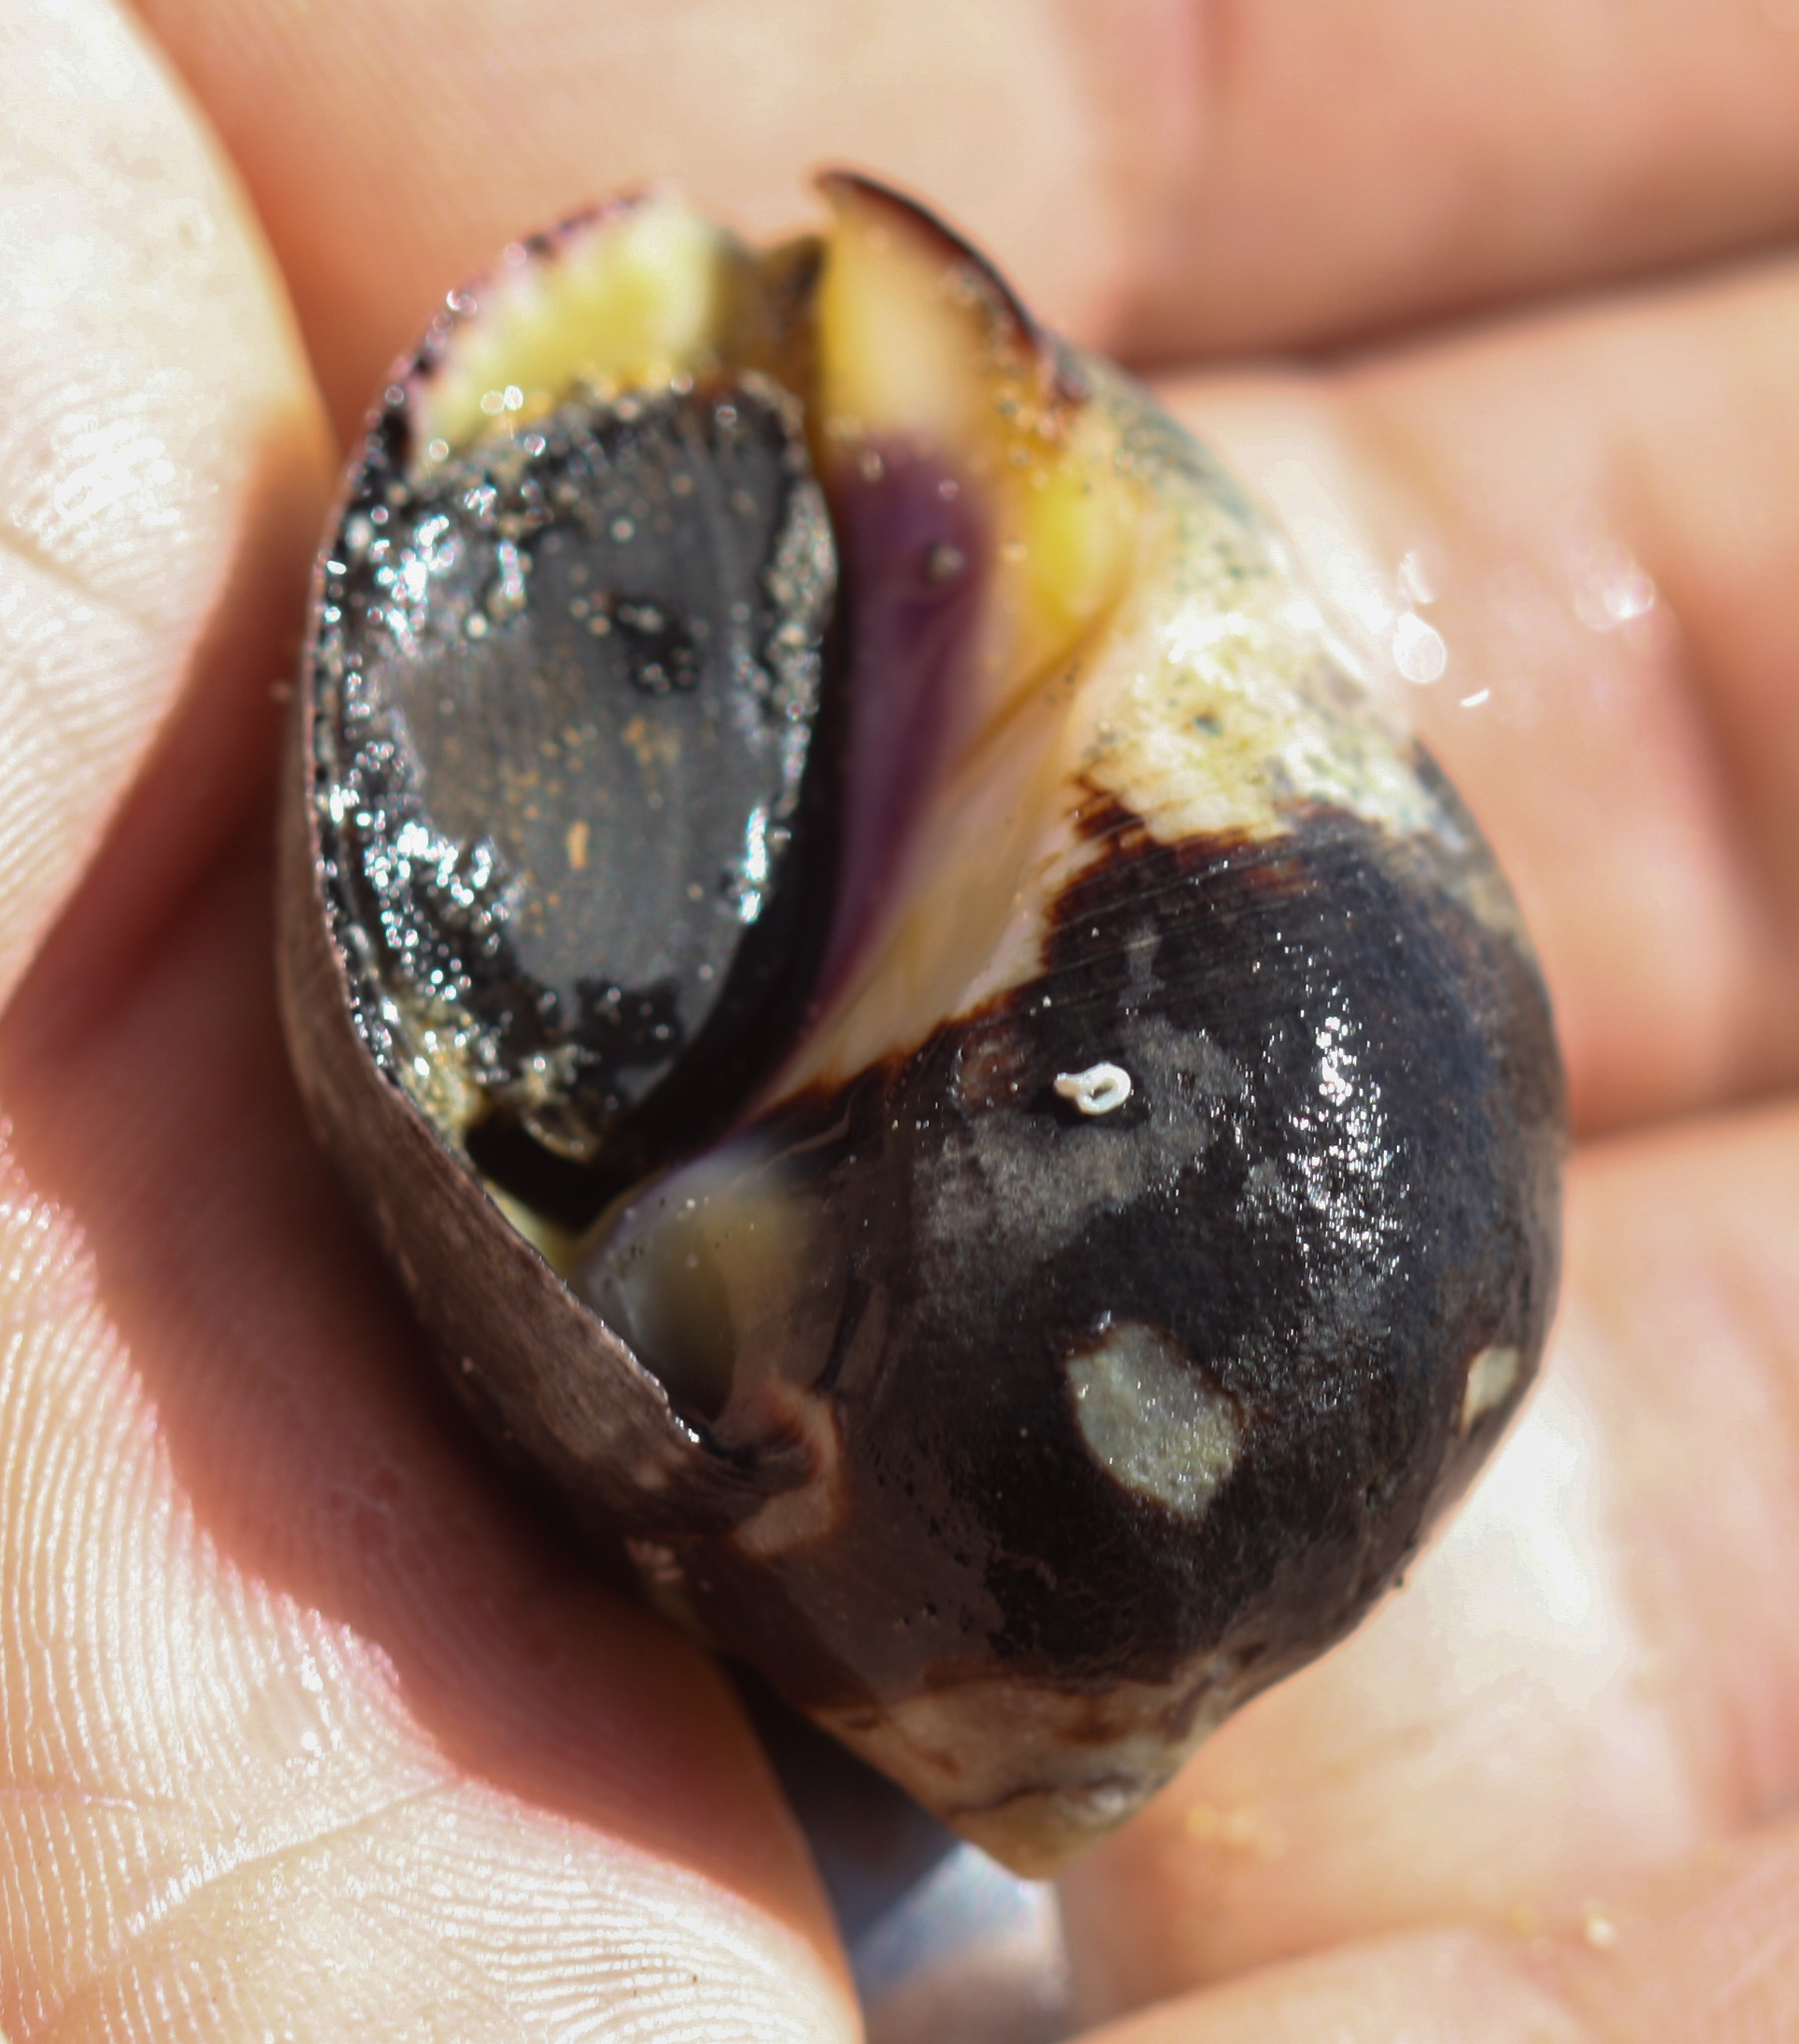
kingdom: Animalia
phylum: Mollusca
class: Gastropoda
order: Neogastropoda
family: Muricidae
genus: Vasula
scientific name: Vasula melones
